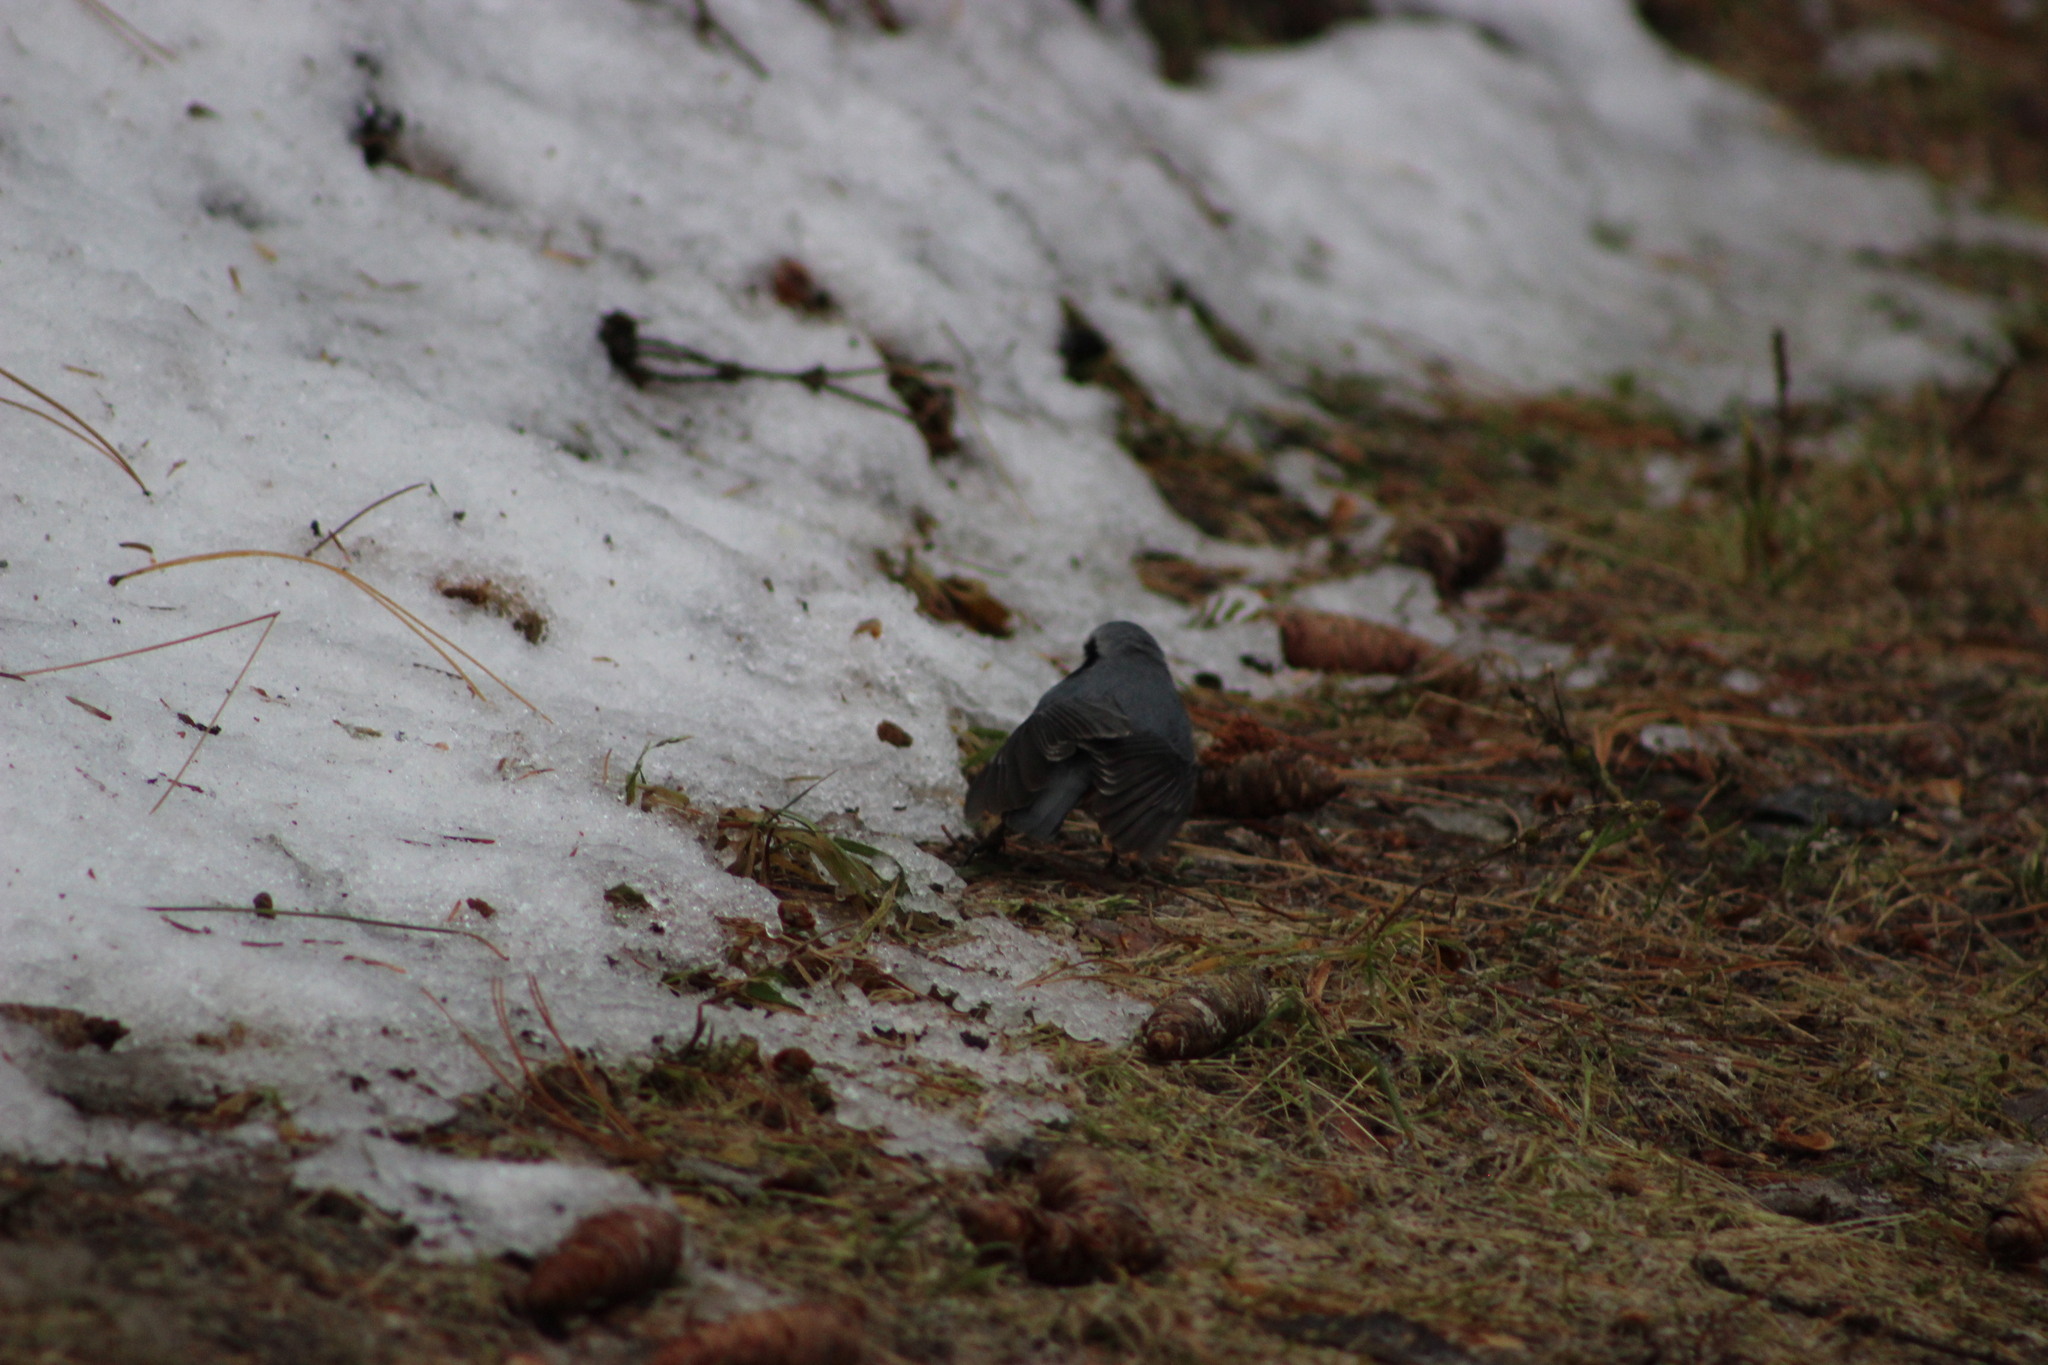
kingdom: Animalia
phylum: Chordata
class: Aves
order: Passeriformes
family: Sittidae
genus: Sitta
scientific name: Sitta europaea
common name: Eurasian nuthatch
